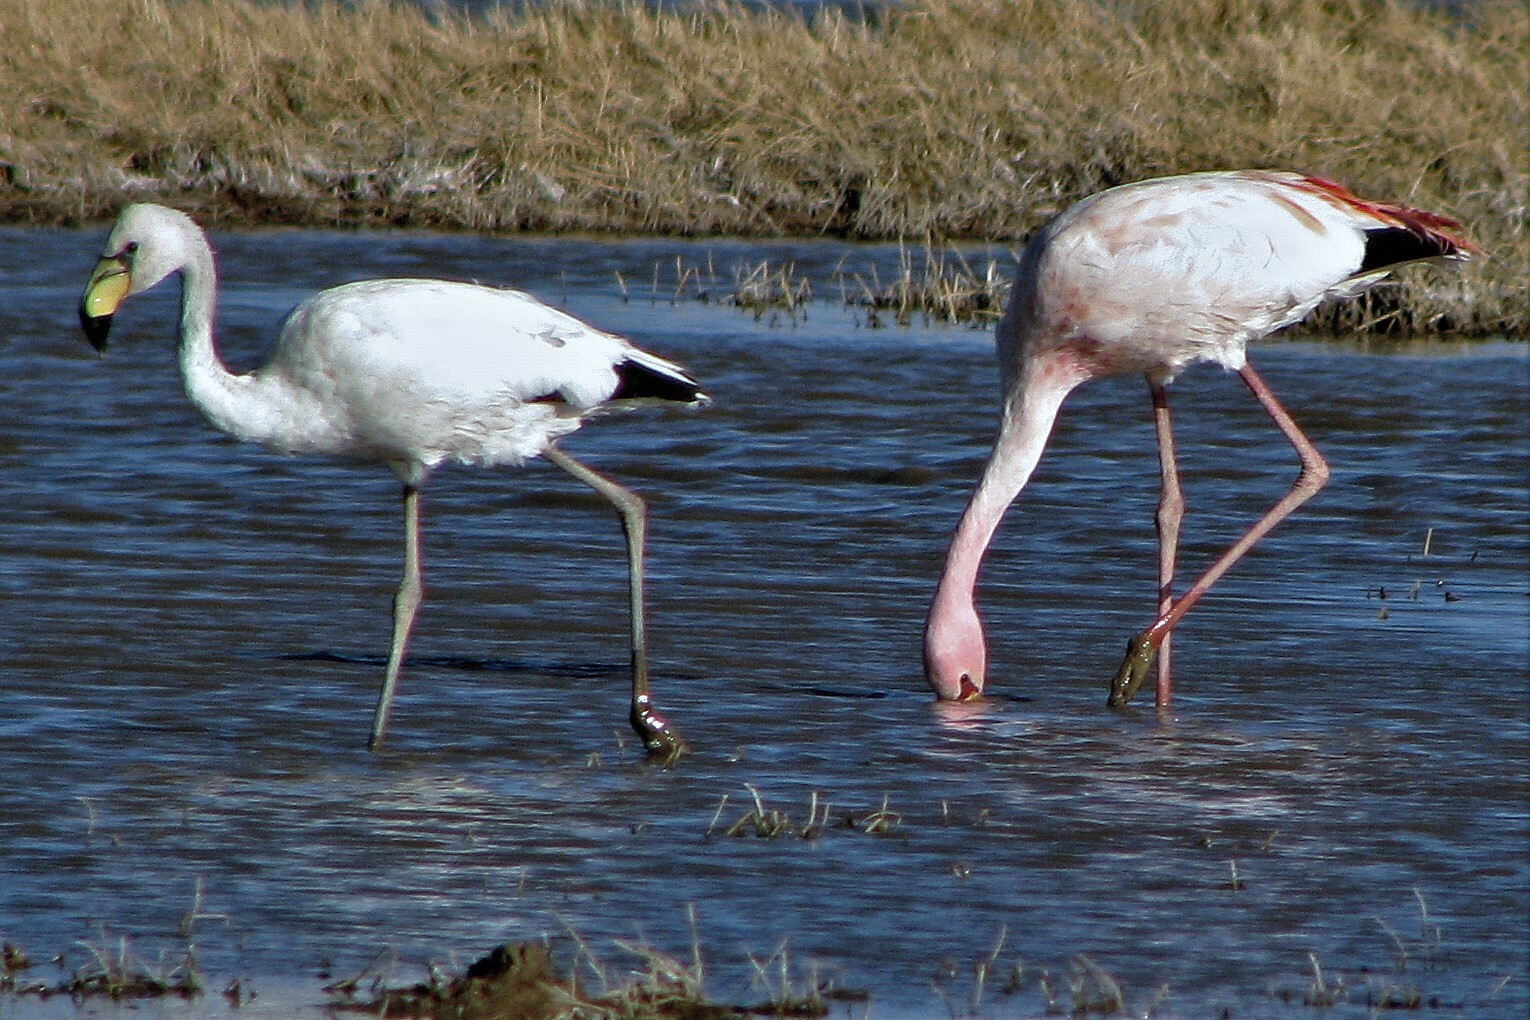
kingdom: Animalia
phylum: Chordata
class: Aves
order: Phoenicopteriformes
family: Phoenicopteridae
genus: Phoenicoparrus
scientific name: Phoenicoparrus jamesi
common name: James's flamingo
